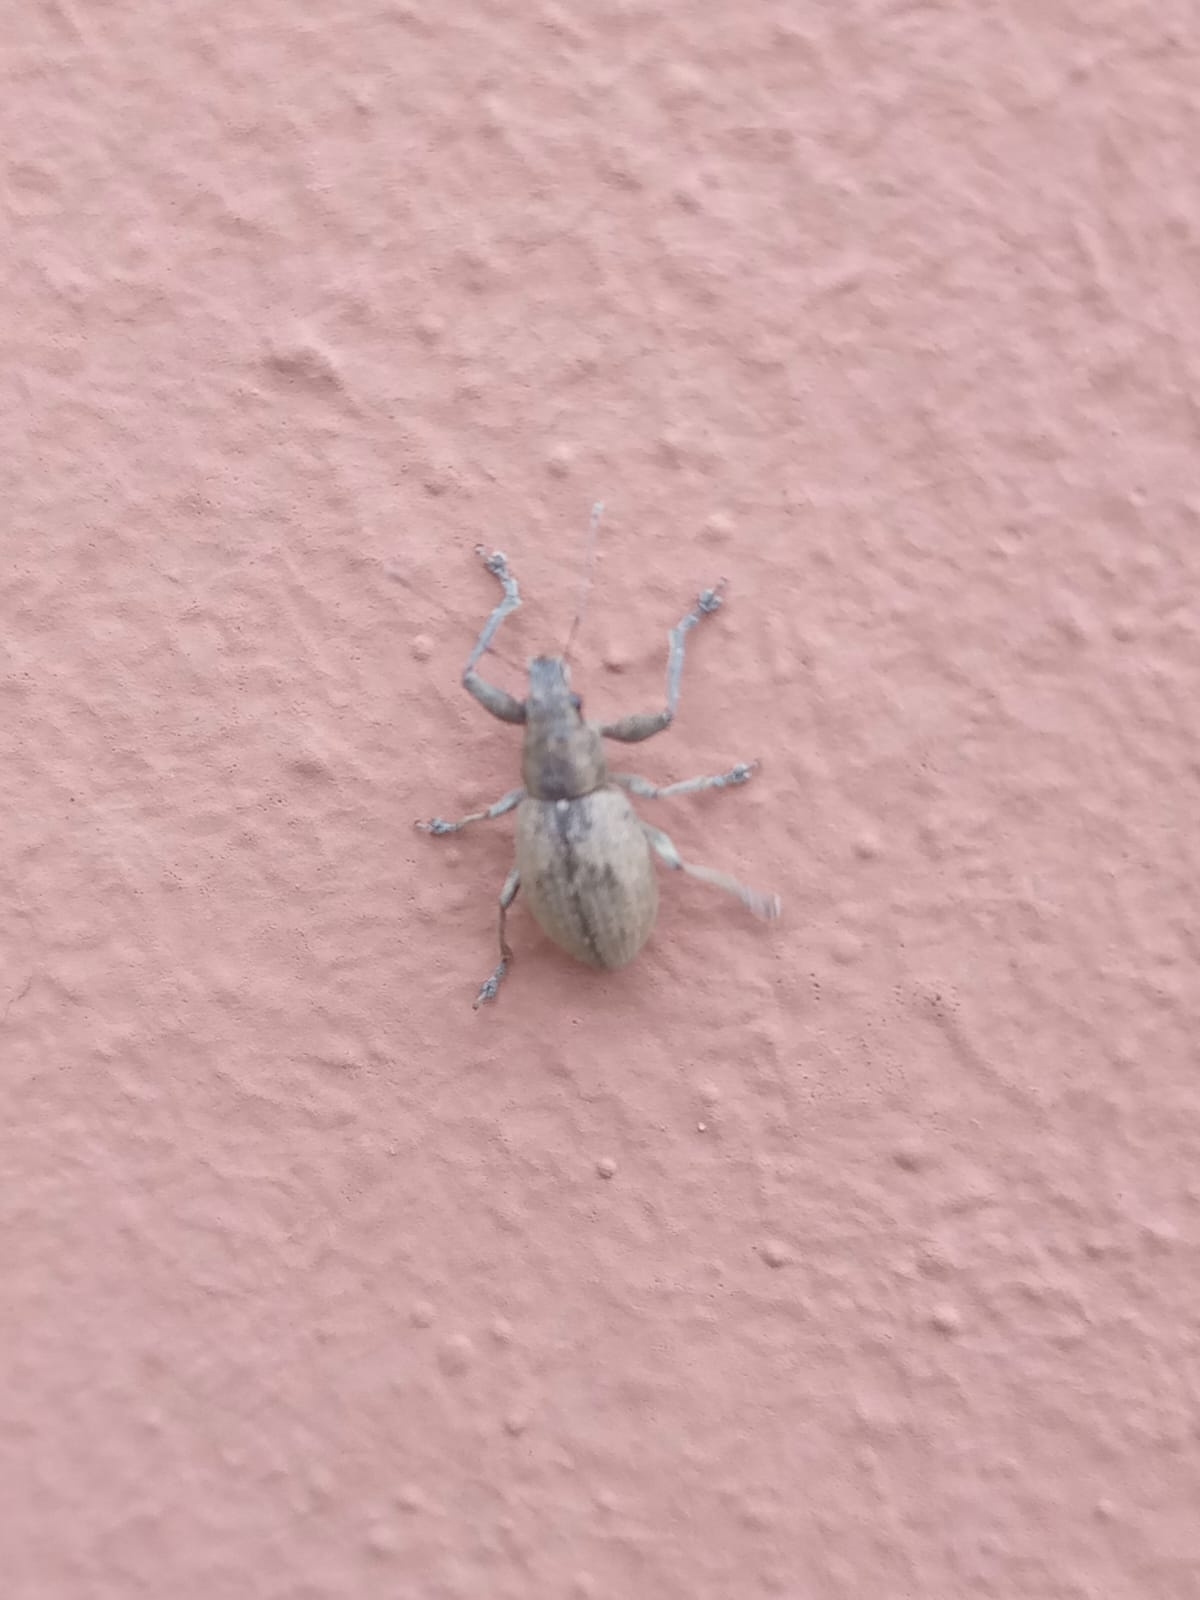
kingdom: Animalia
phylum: Arthropoda
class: Insecta
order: Coleoptera
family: Curculionidae
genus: Naupactus
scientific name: Naupactus versatilis
